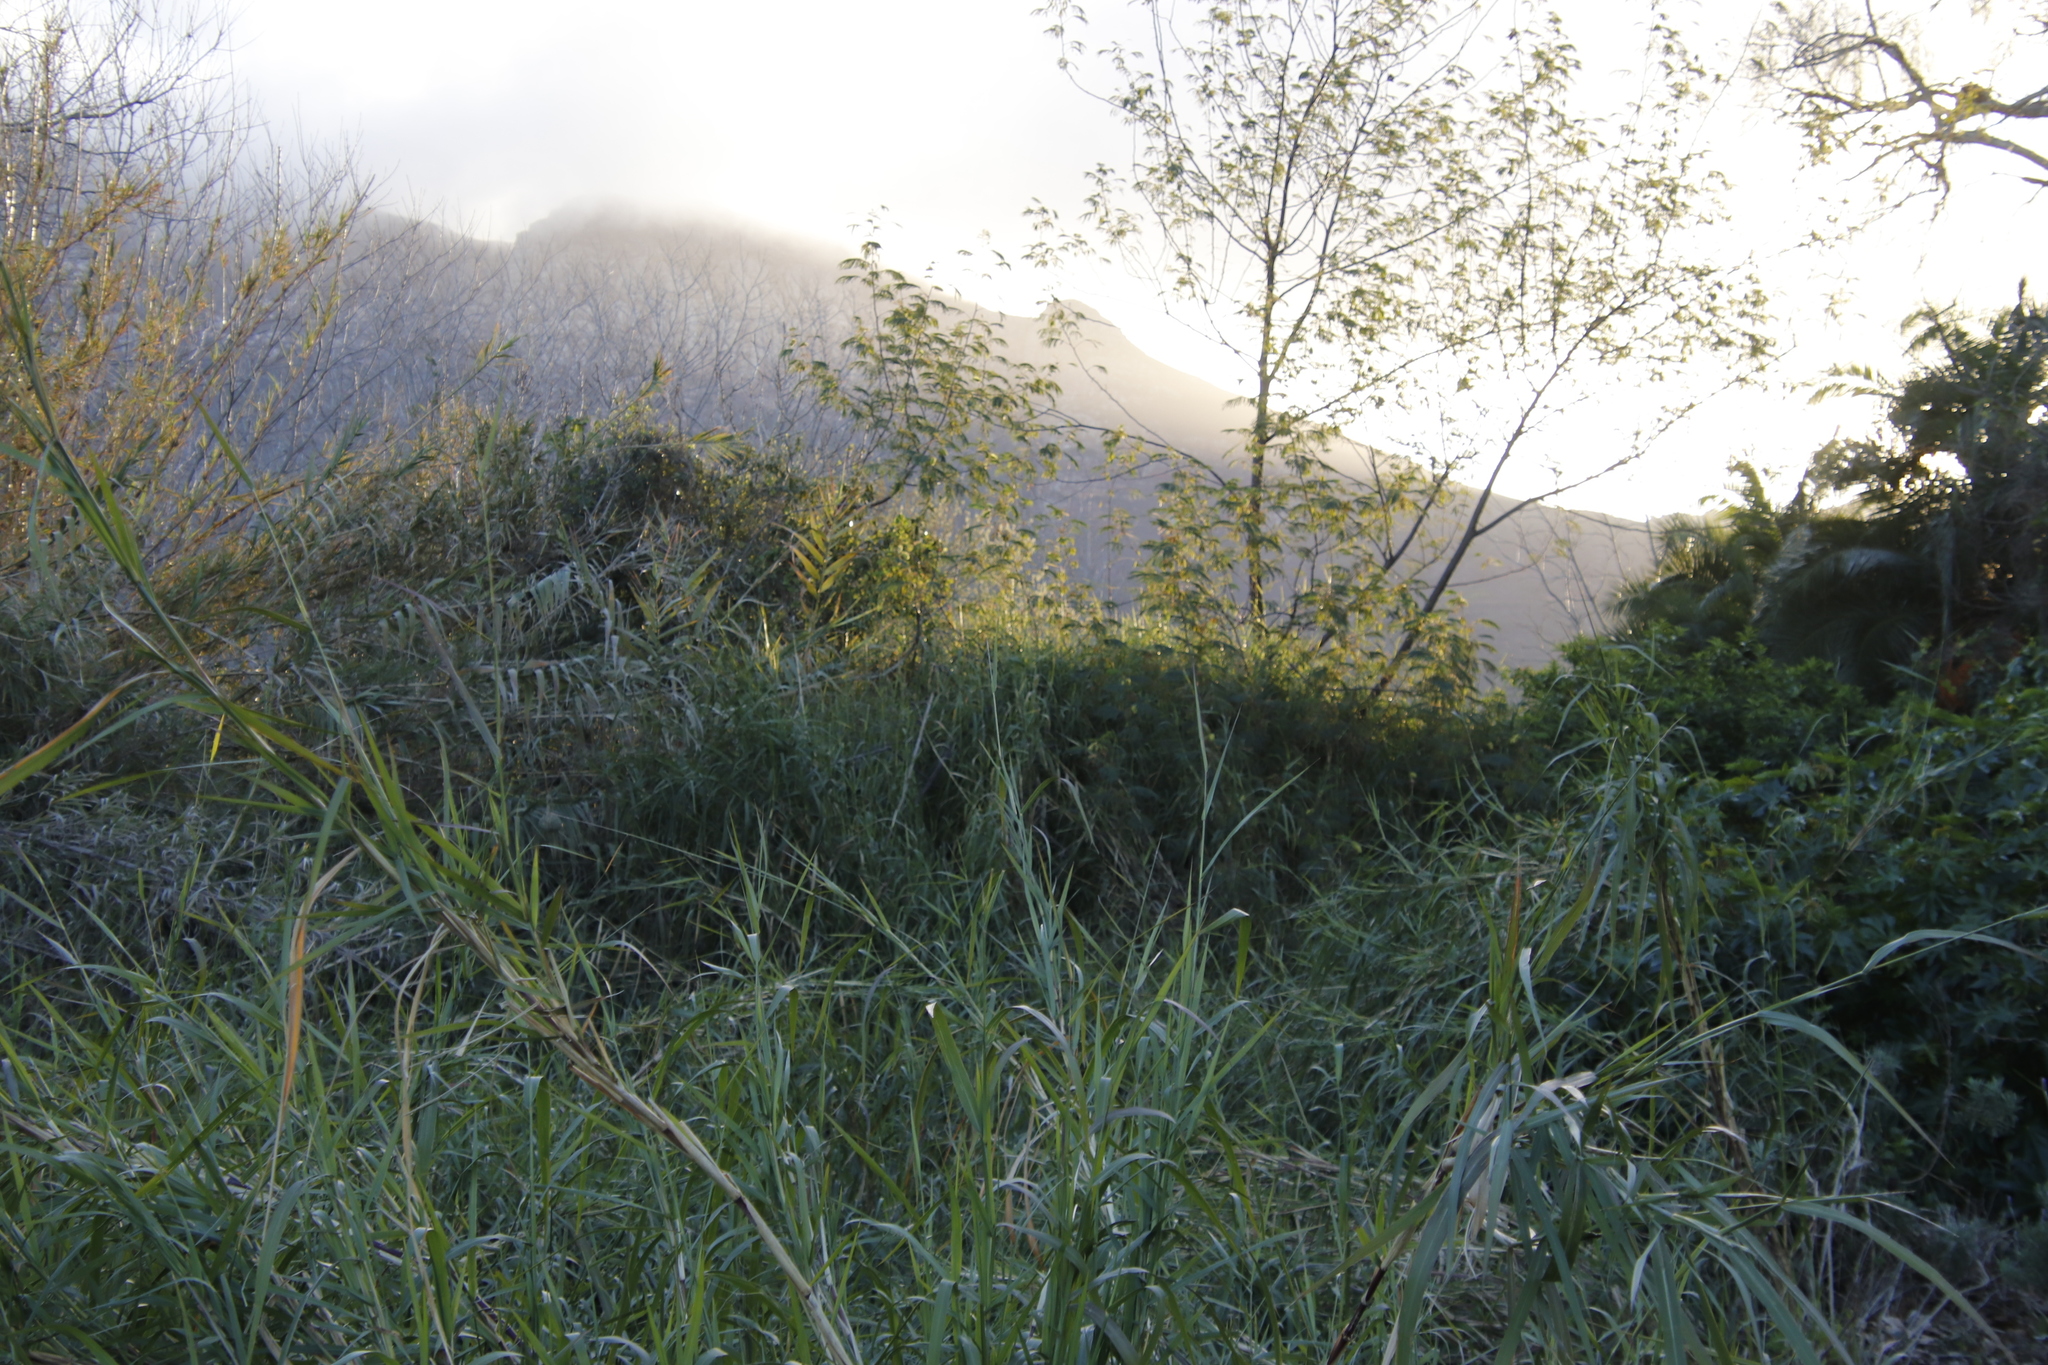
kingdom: Plantae
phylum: Tracheophyta
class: Magnoliopsida
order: Fabales
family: Fabaceae
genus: Paraserianthes
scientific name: Paraserianthes lophantha
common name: Plume albizia
